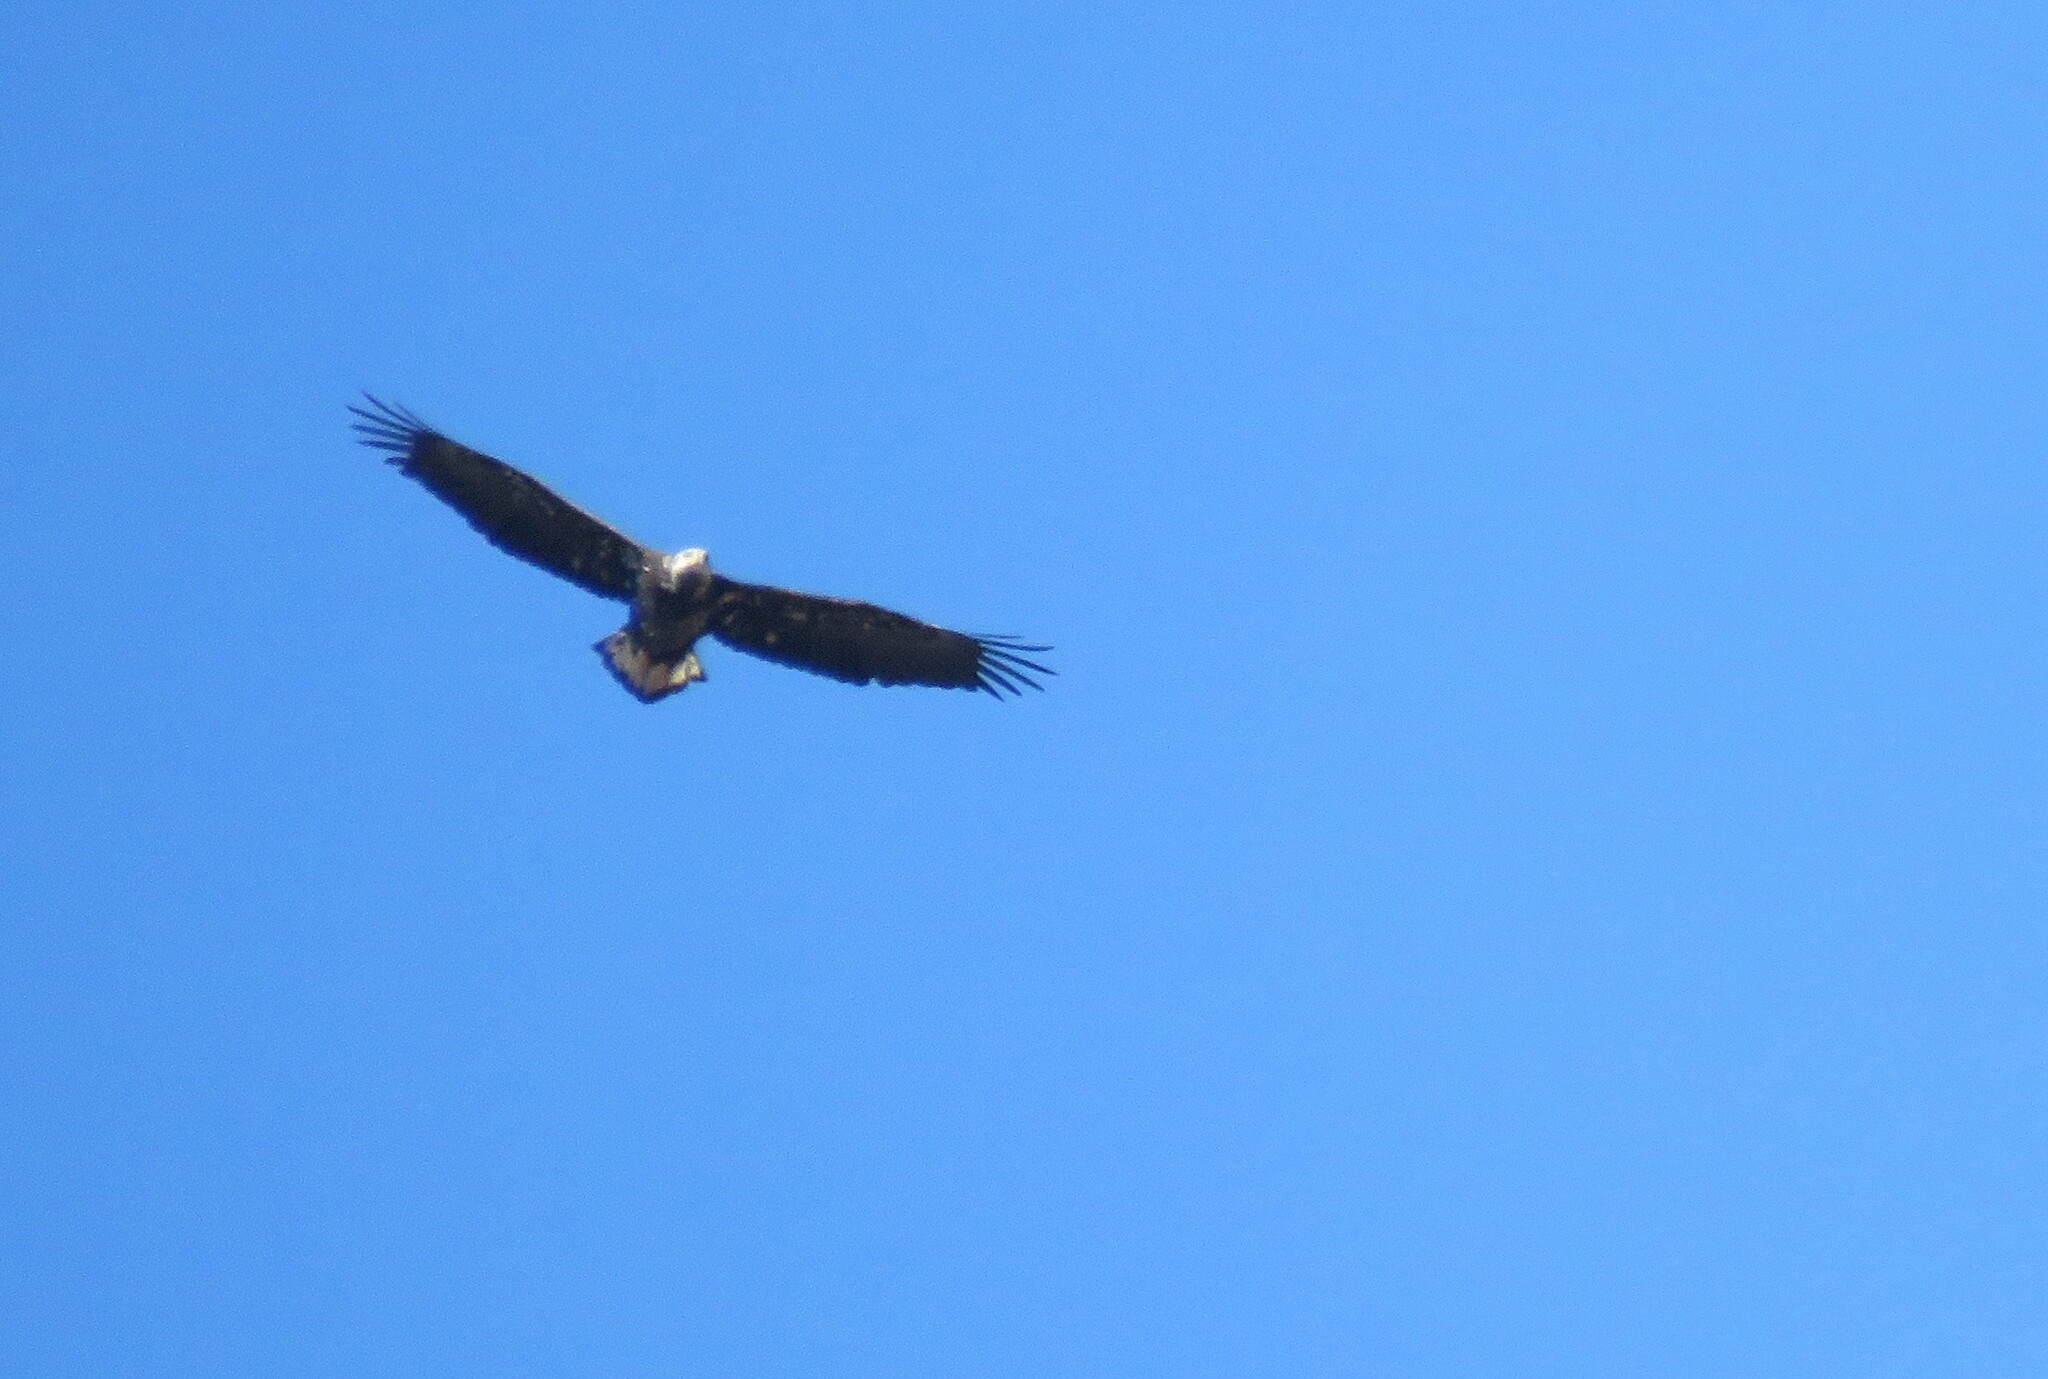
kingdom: Animalia
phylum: Chordata
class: Aves
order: Accipitriformes
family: Accipitridae
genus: Haliaeetus
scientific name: Haliaeetus leucocephalus
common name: Bald eagle
